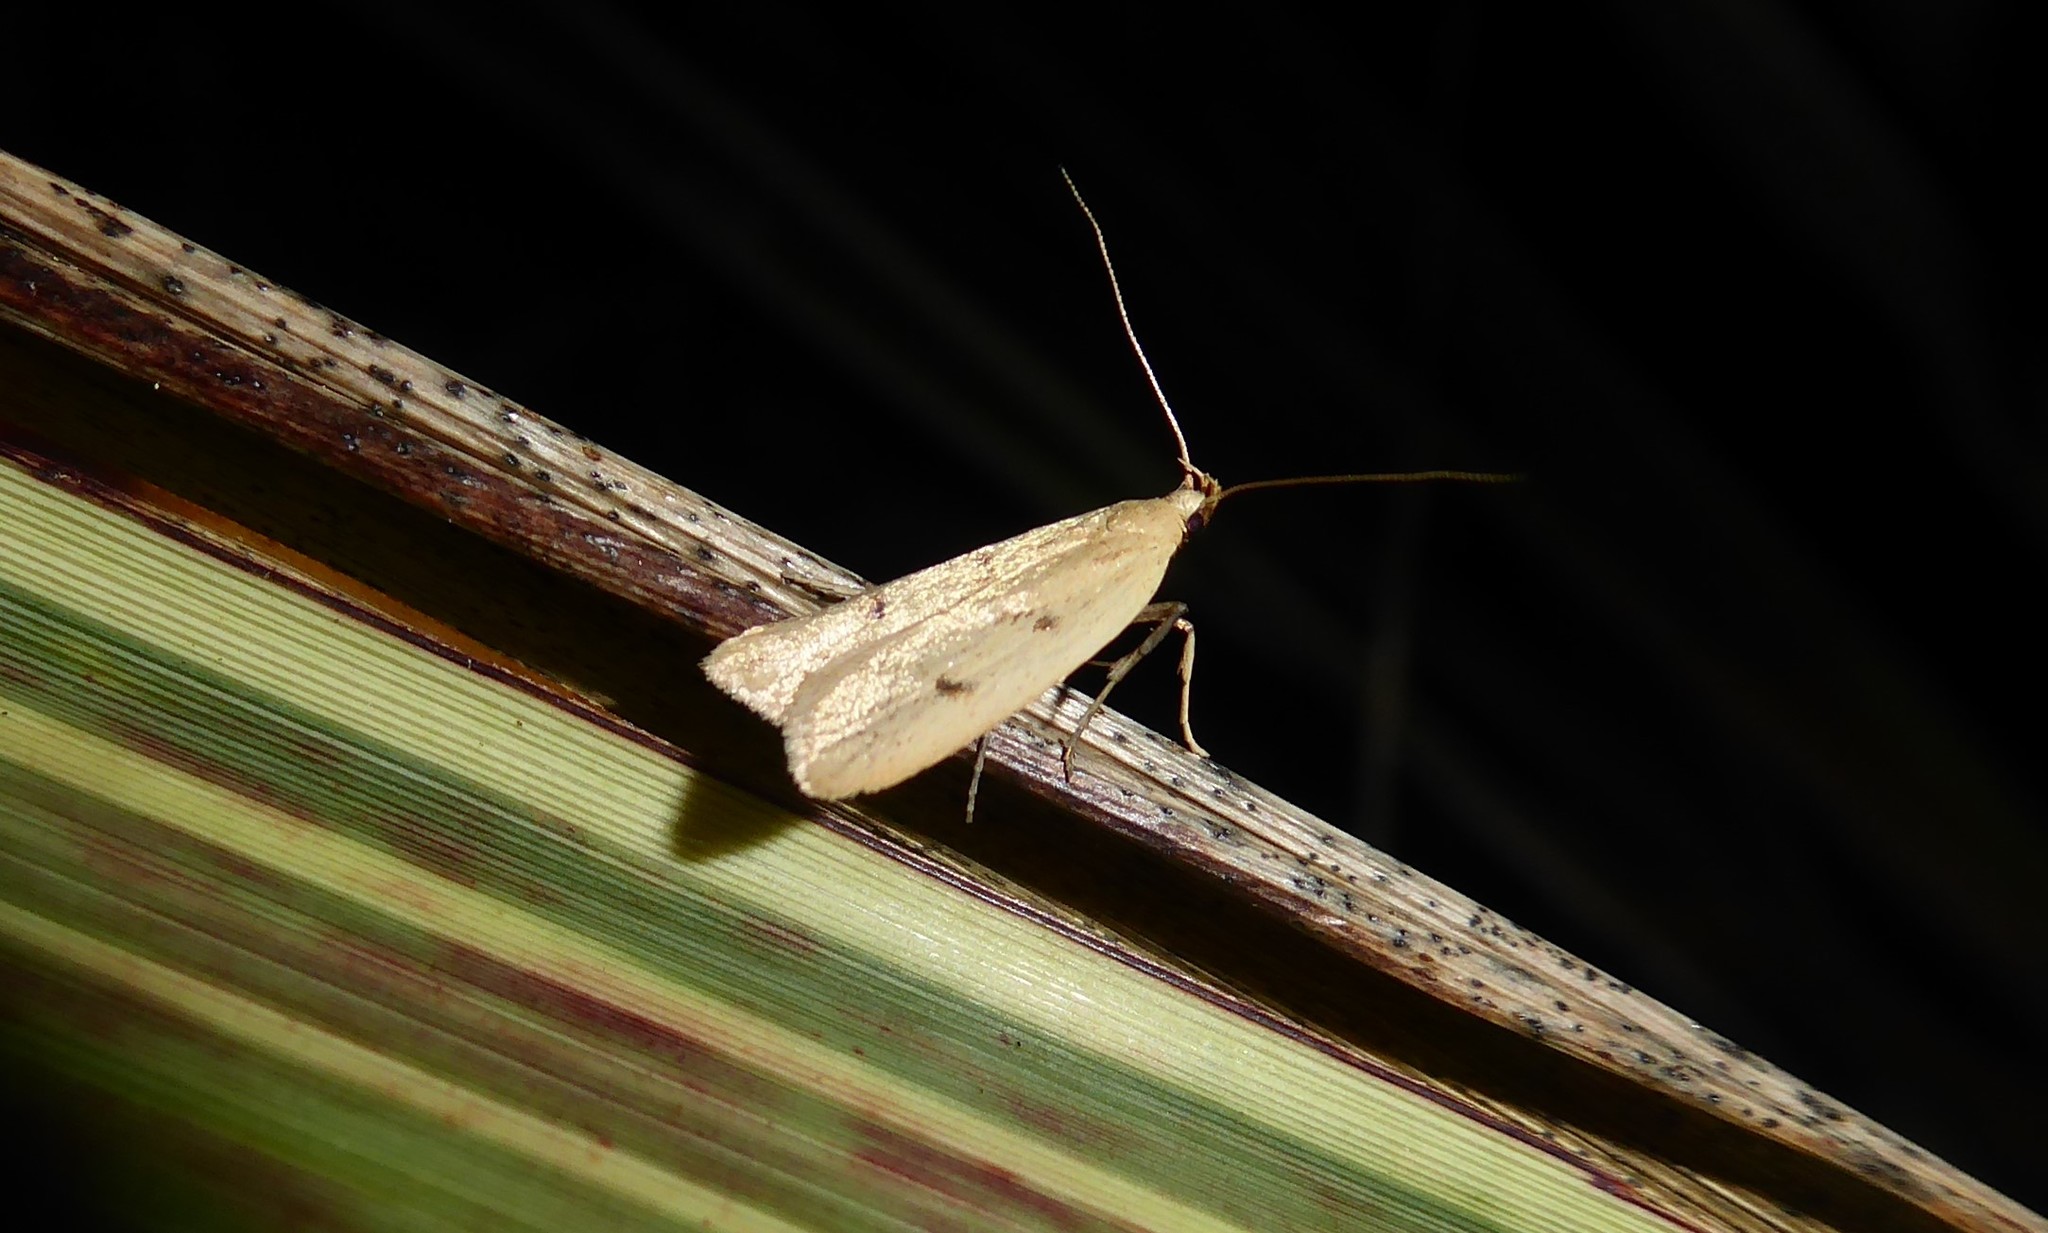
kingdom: Animalia
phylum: Arthropoda
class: Insecta
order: Lepidoptera
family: Oecophoridae
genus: Gymnobathra
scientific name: Gymnobathra sarcoxantha
